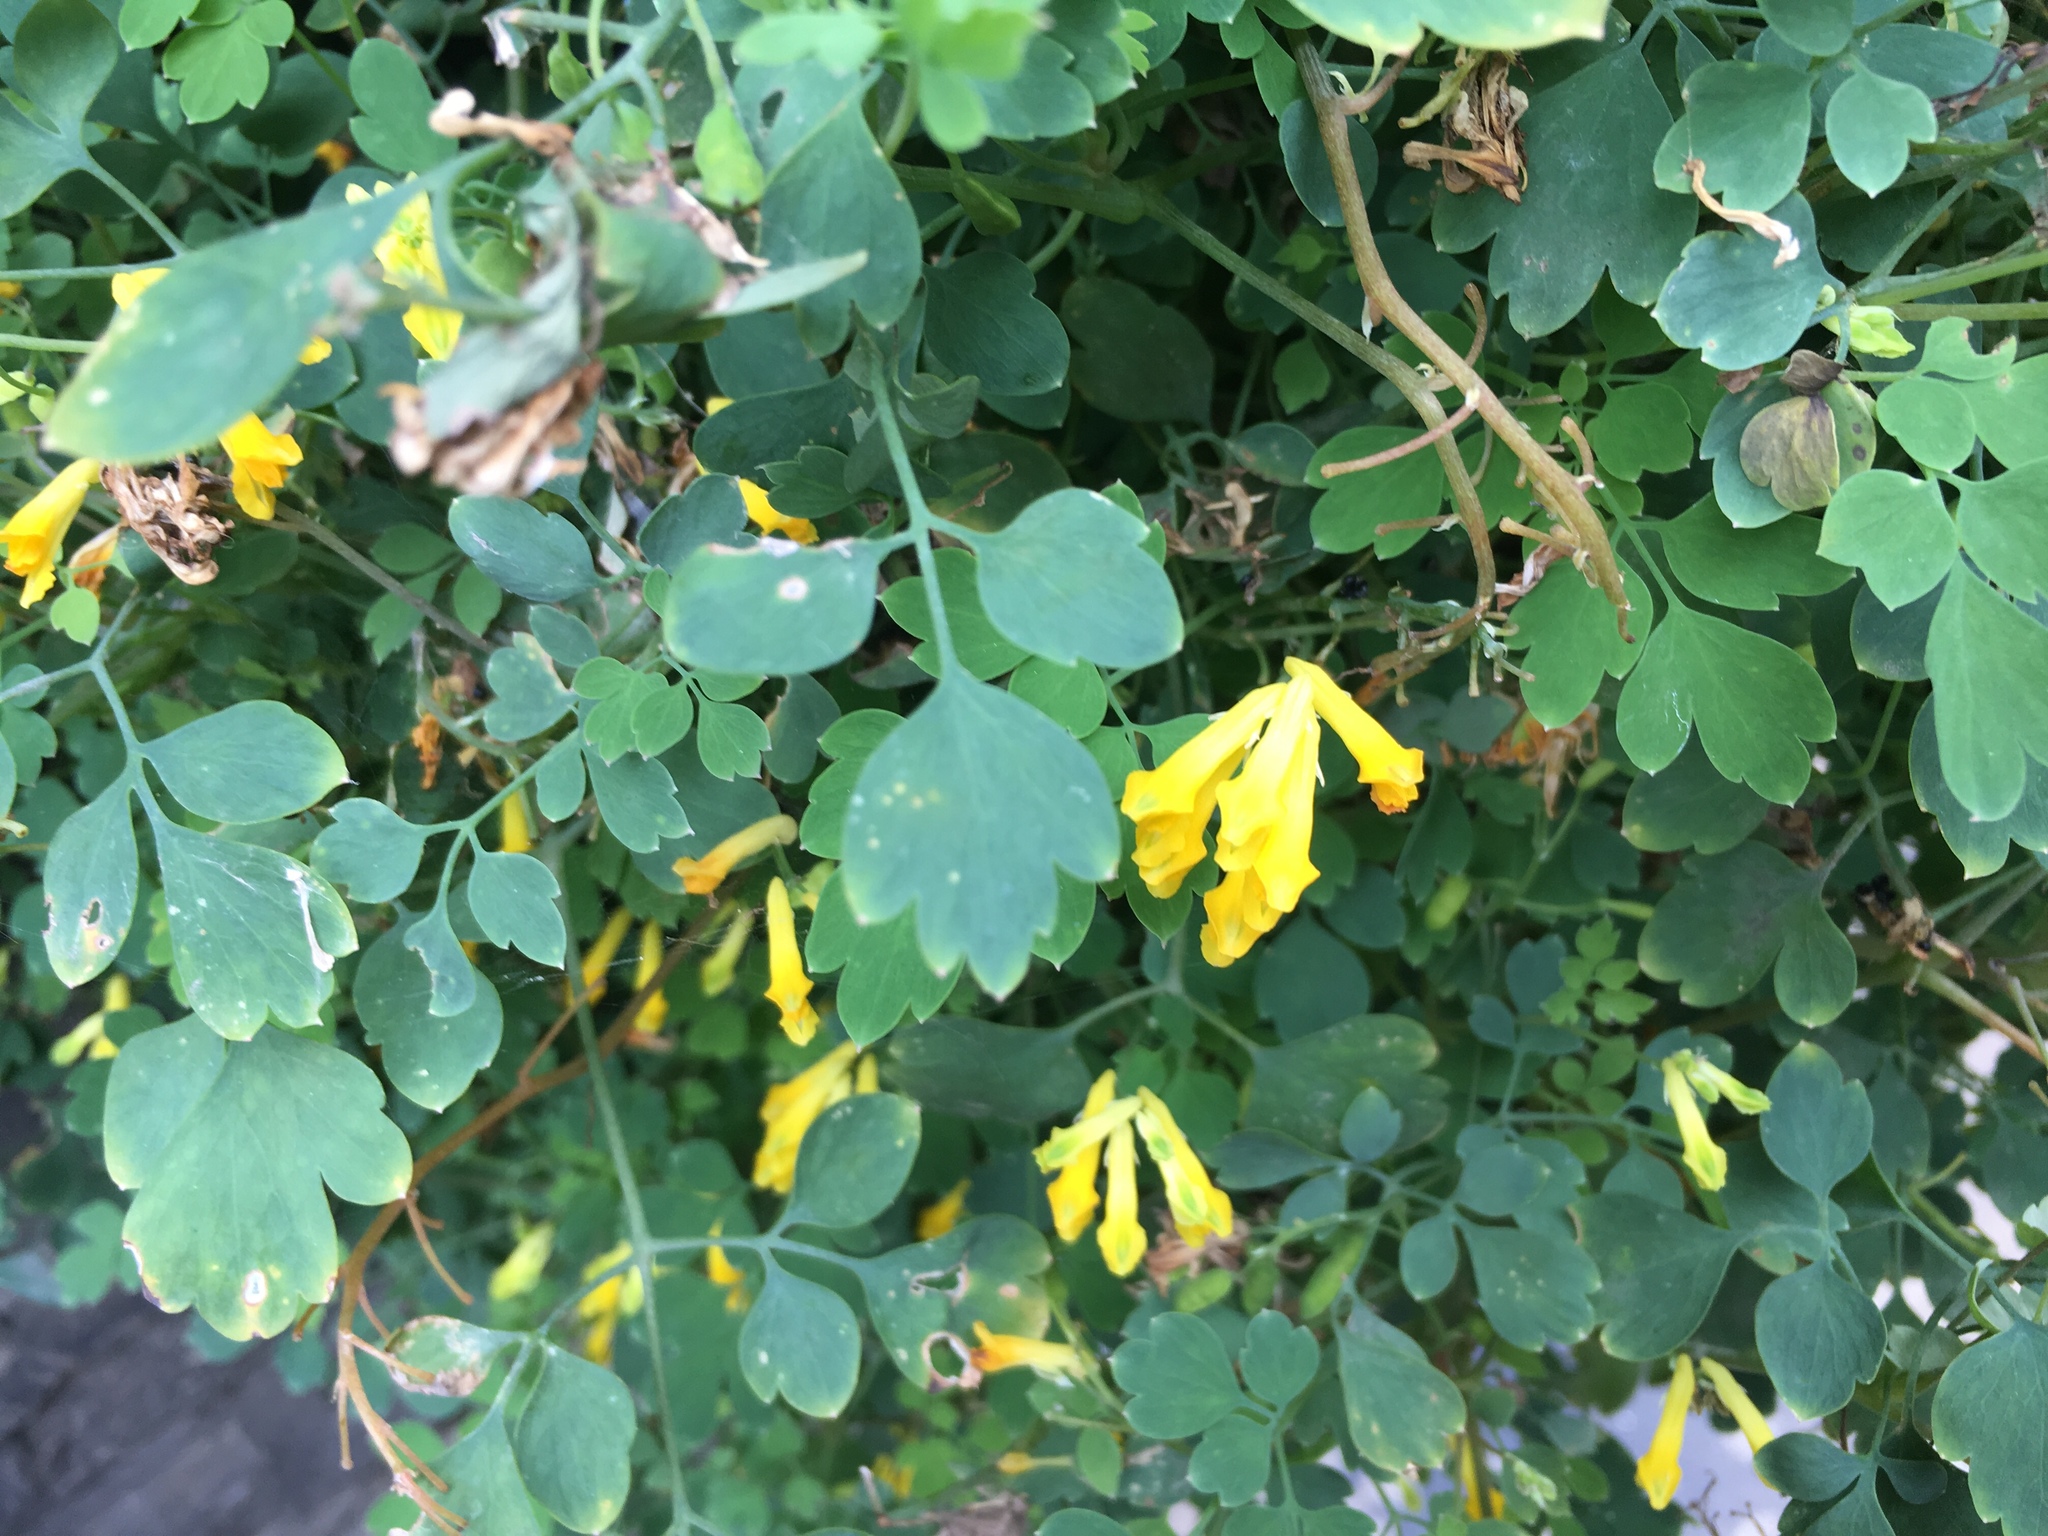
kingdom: Plantae
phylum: Tracheophyta
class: Magnoliopsida
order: Ranunculales
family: Papaveraceae
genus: Pseudofumaria
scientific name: Pseudofumaria lutea
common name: Yellow corydalis
